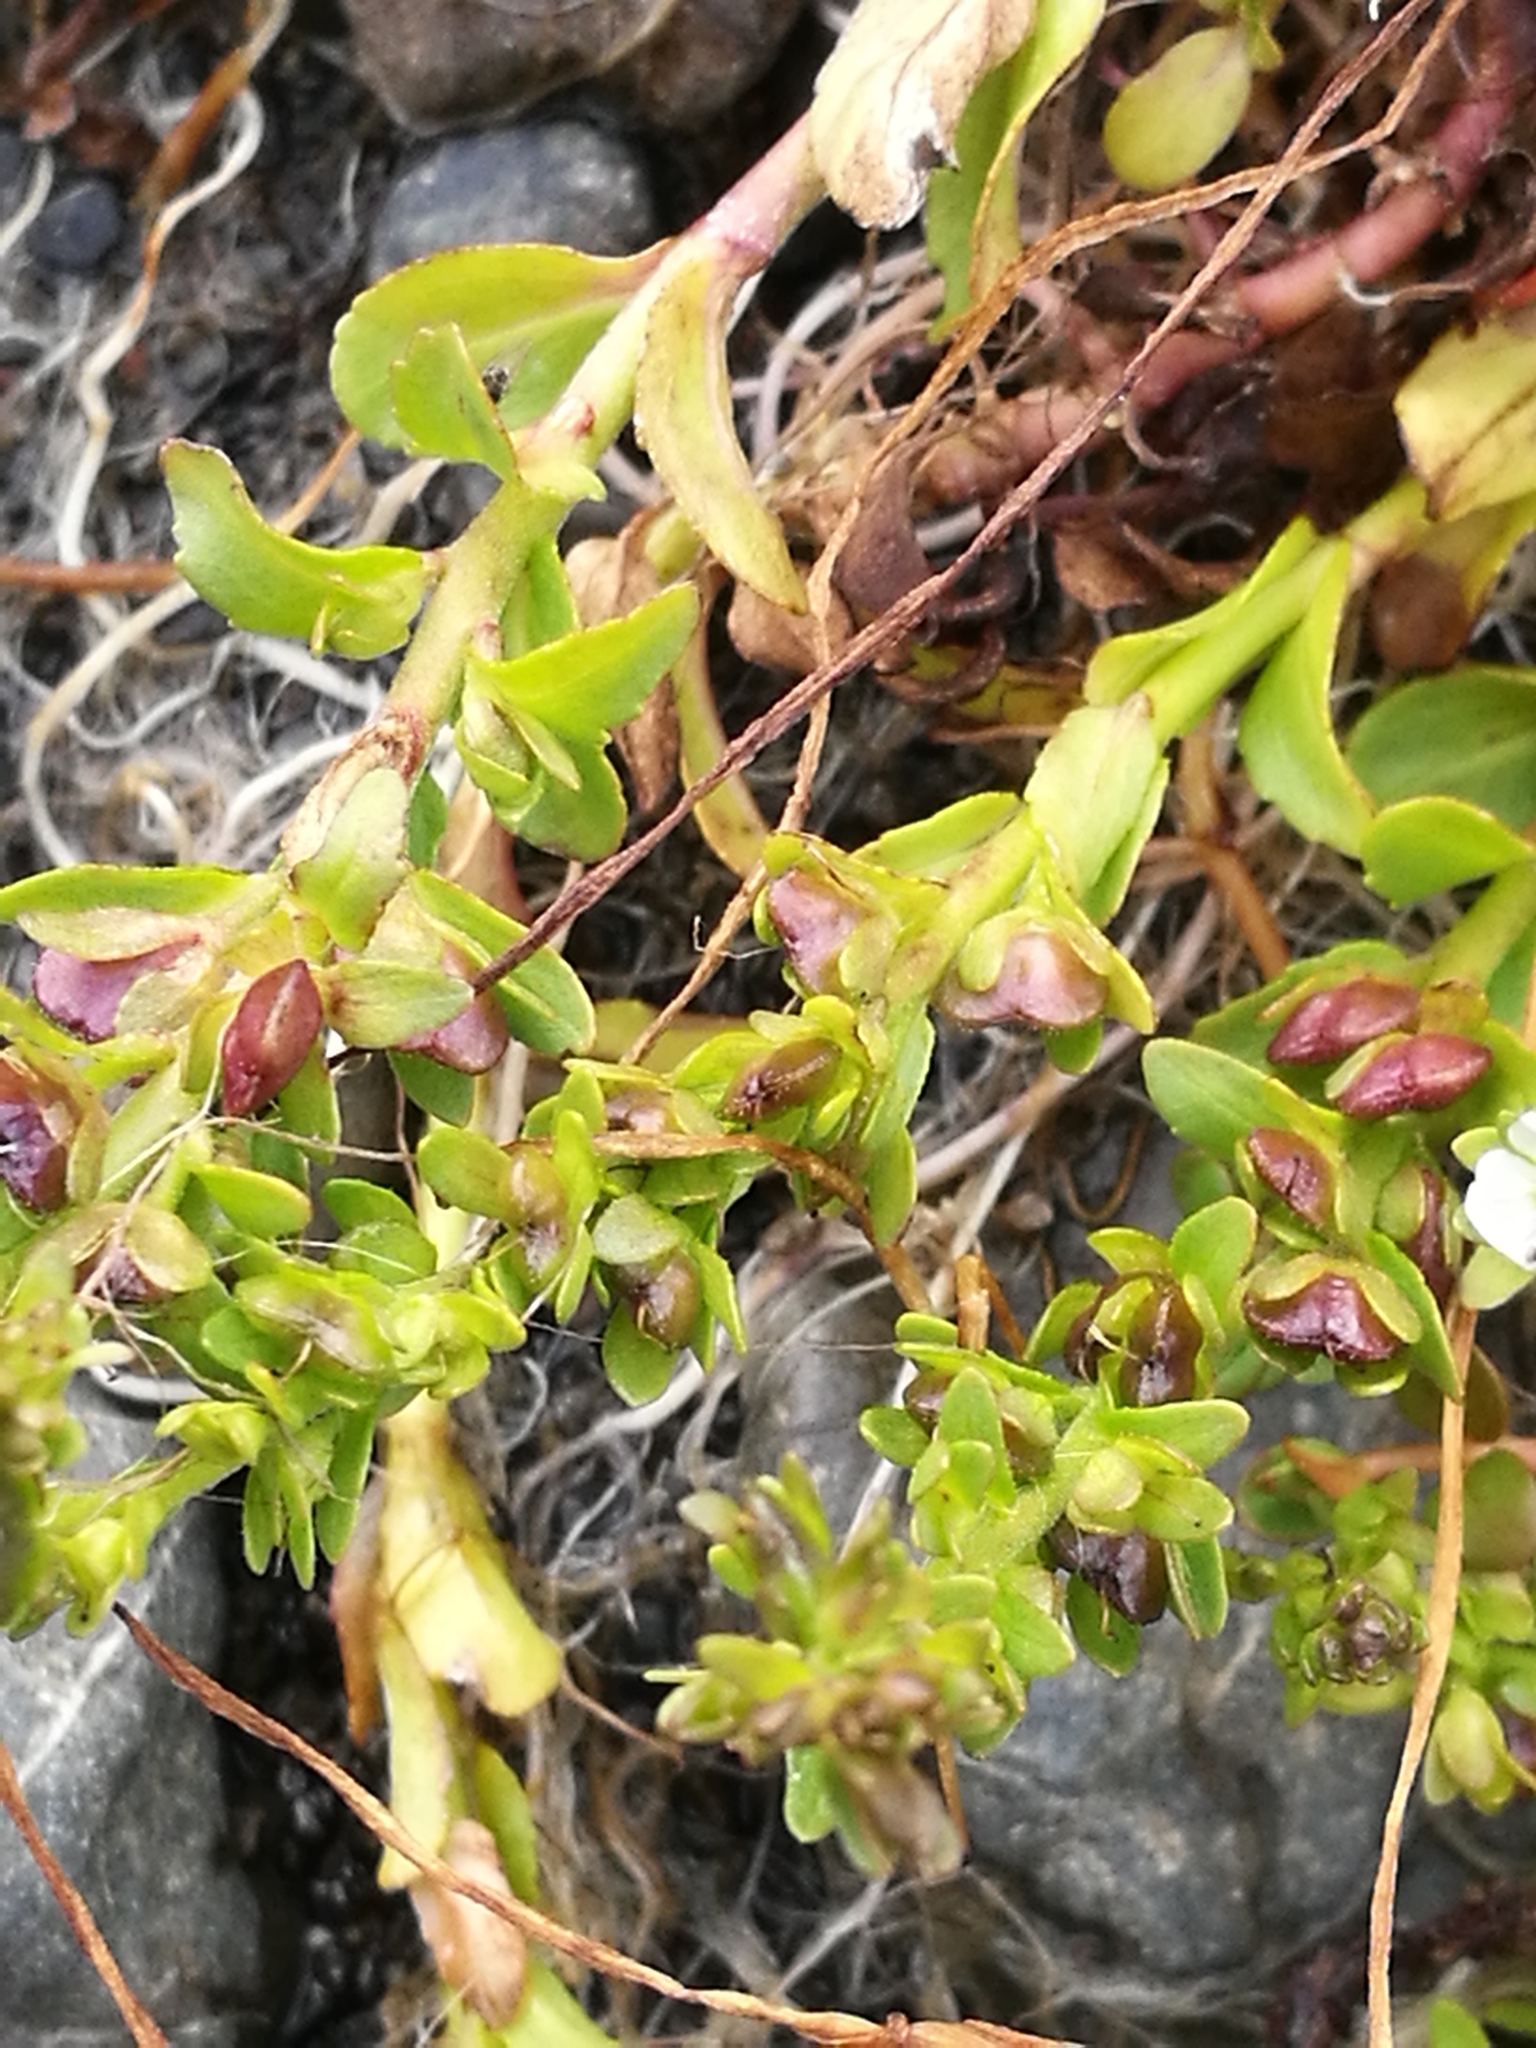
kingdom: Plantae
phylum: Tracheophyta
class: Magnoliopsida
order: Lamiales
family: Plantaginaceae
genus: Veronica
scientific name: Veronica serpyllifolia
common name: Thyme-leaved speedwell
